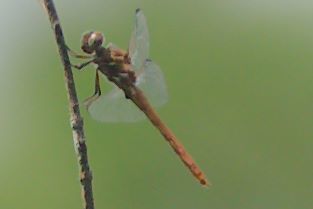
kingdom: Animalia
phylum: Arthropoda
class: Insecta
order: Odonata
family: Libellulidae
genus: Orthemis
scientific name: Orthemis ferruginea
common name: Roseate skimmer
